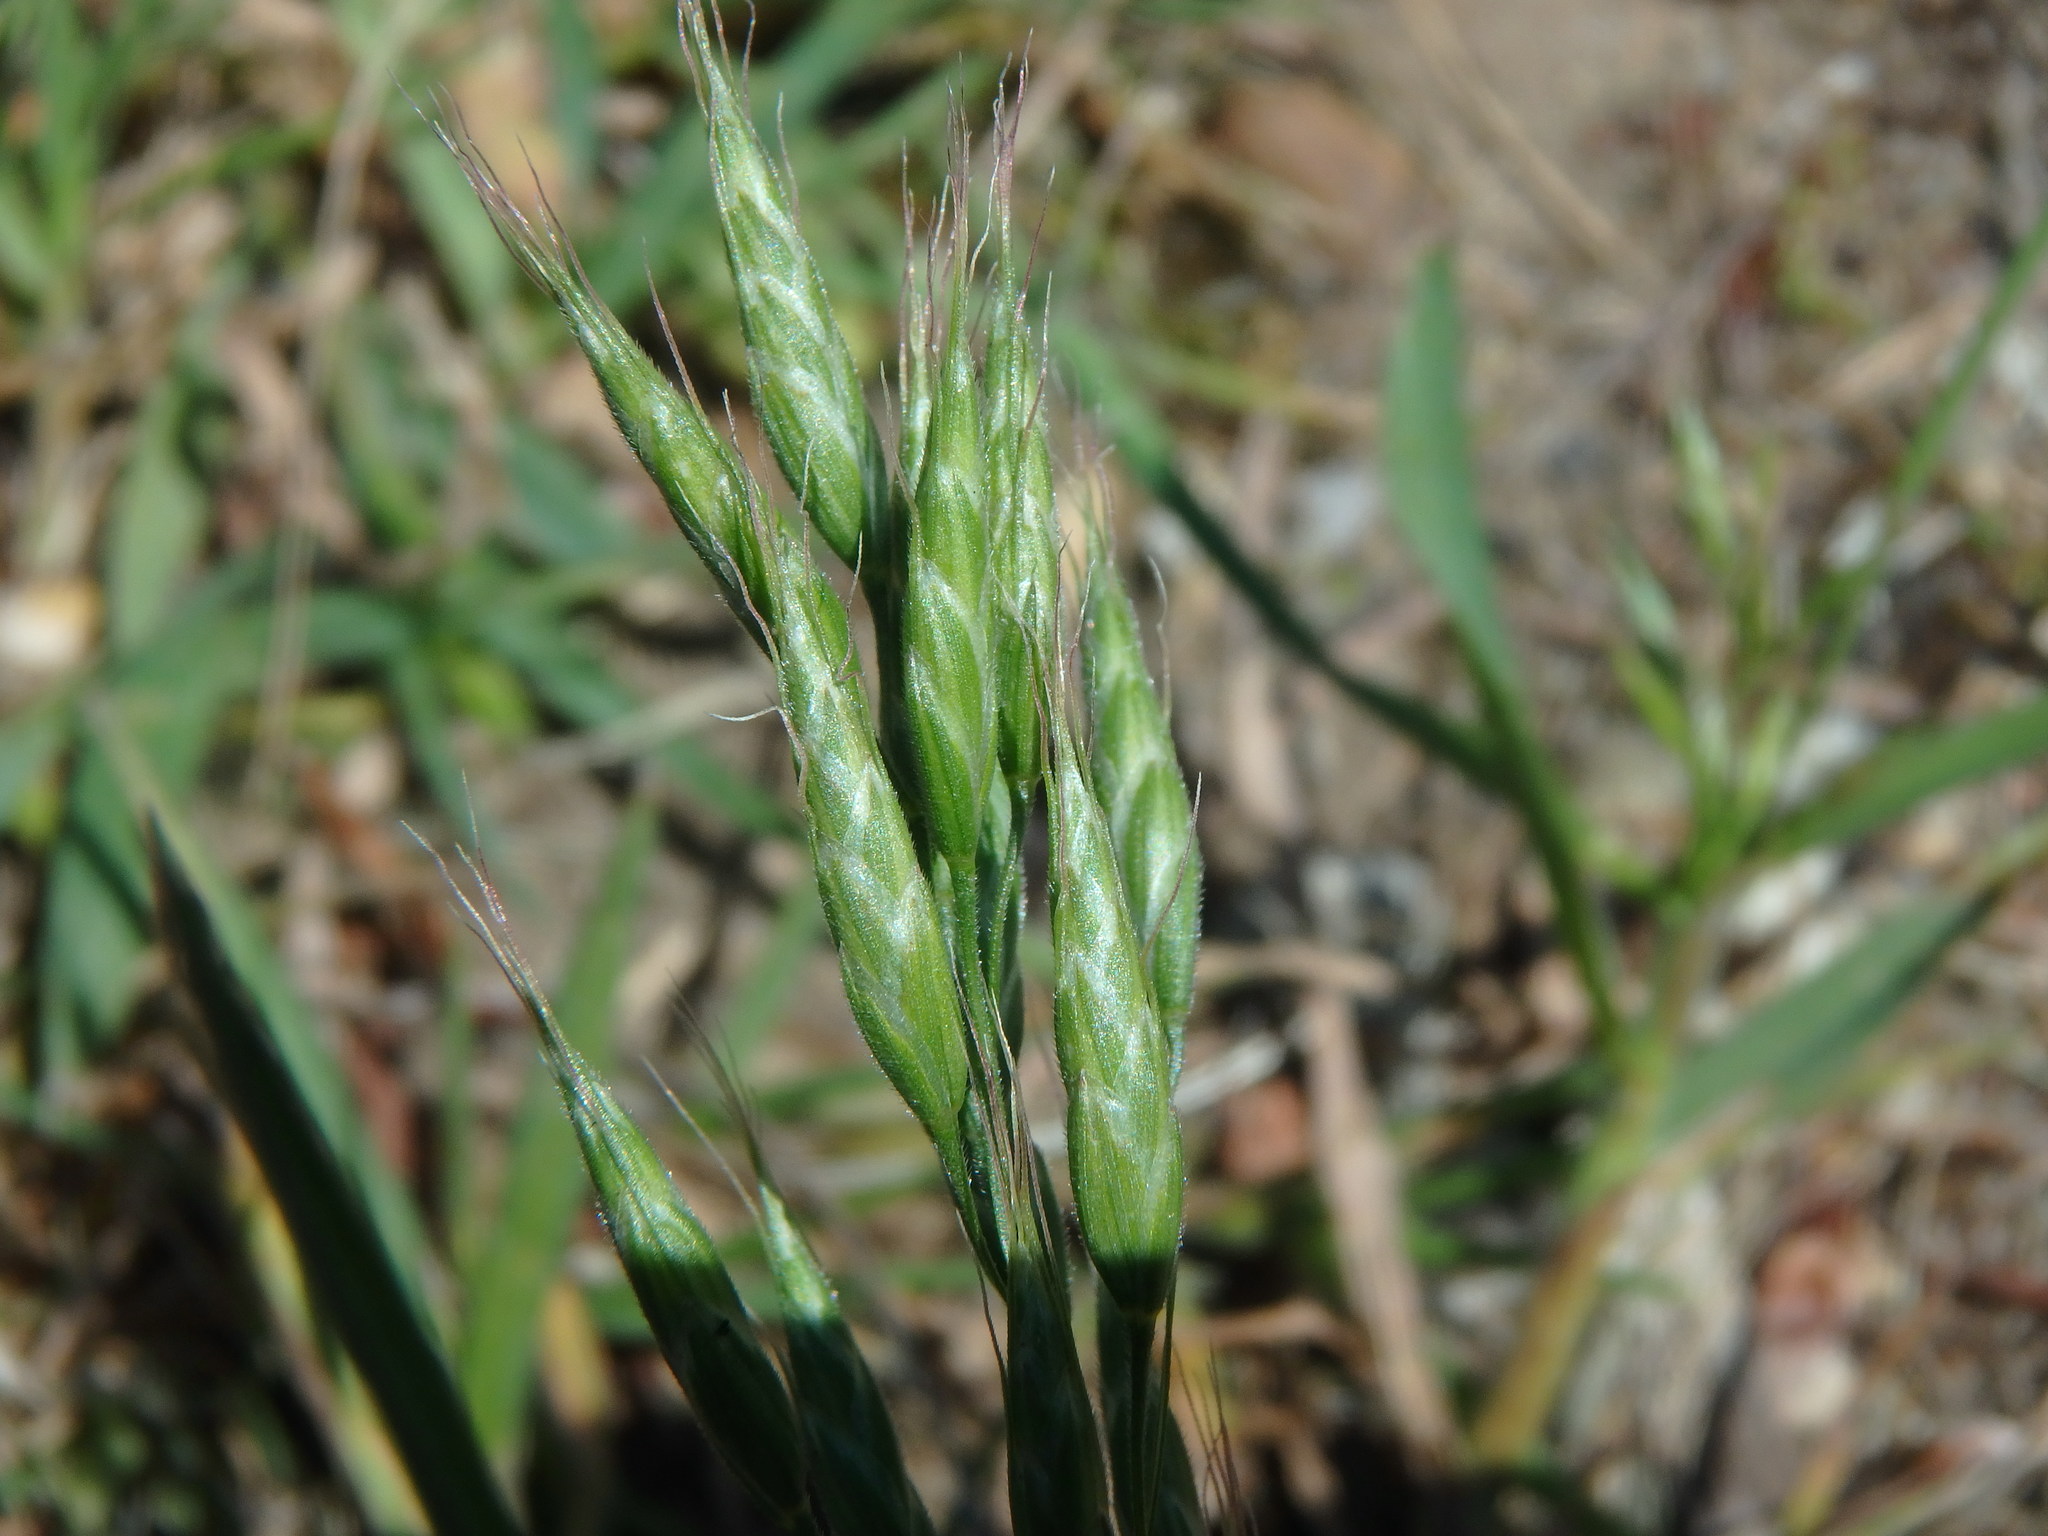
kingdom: Plantae
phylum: Tracheophyta
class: Liliopsida
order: Poales
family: Poaceae
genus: Bromus
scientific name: Bromus hordeaceus
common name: Soft brome
